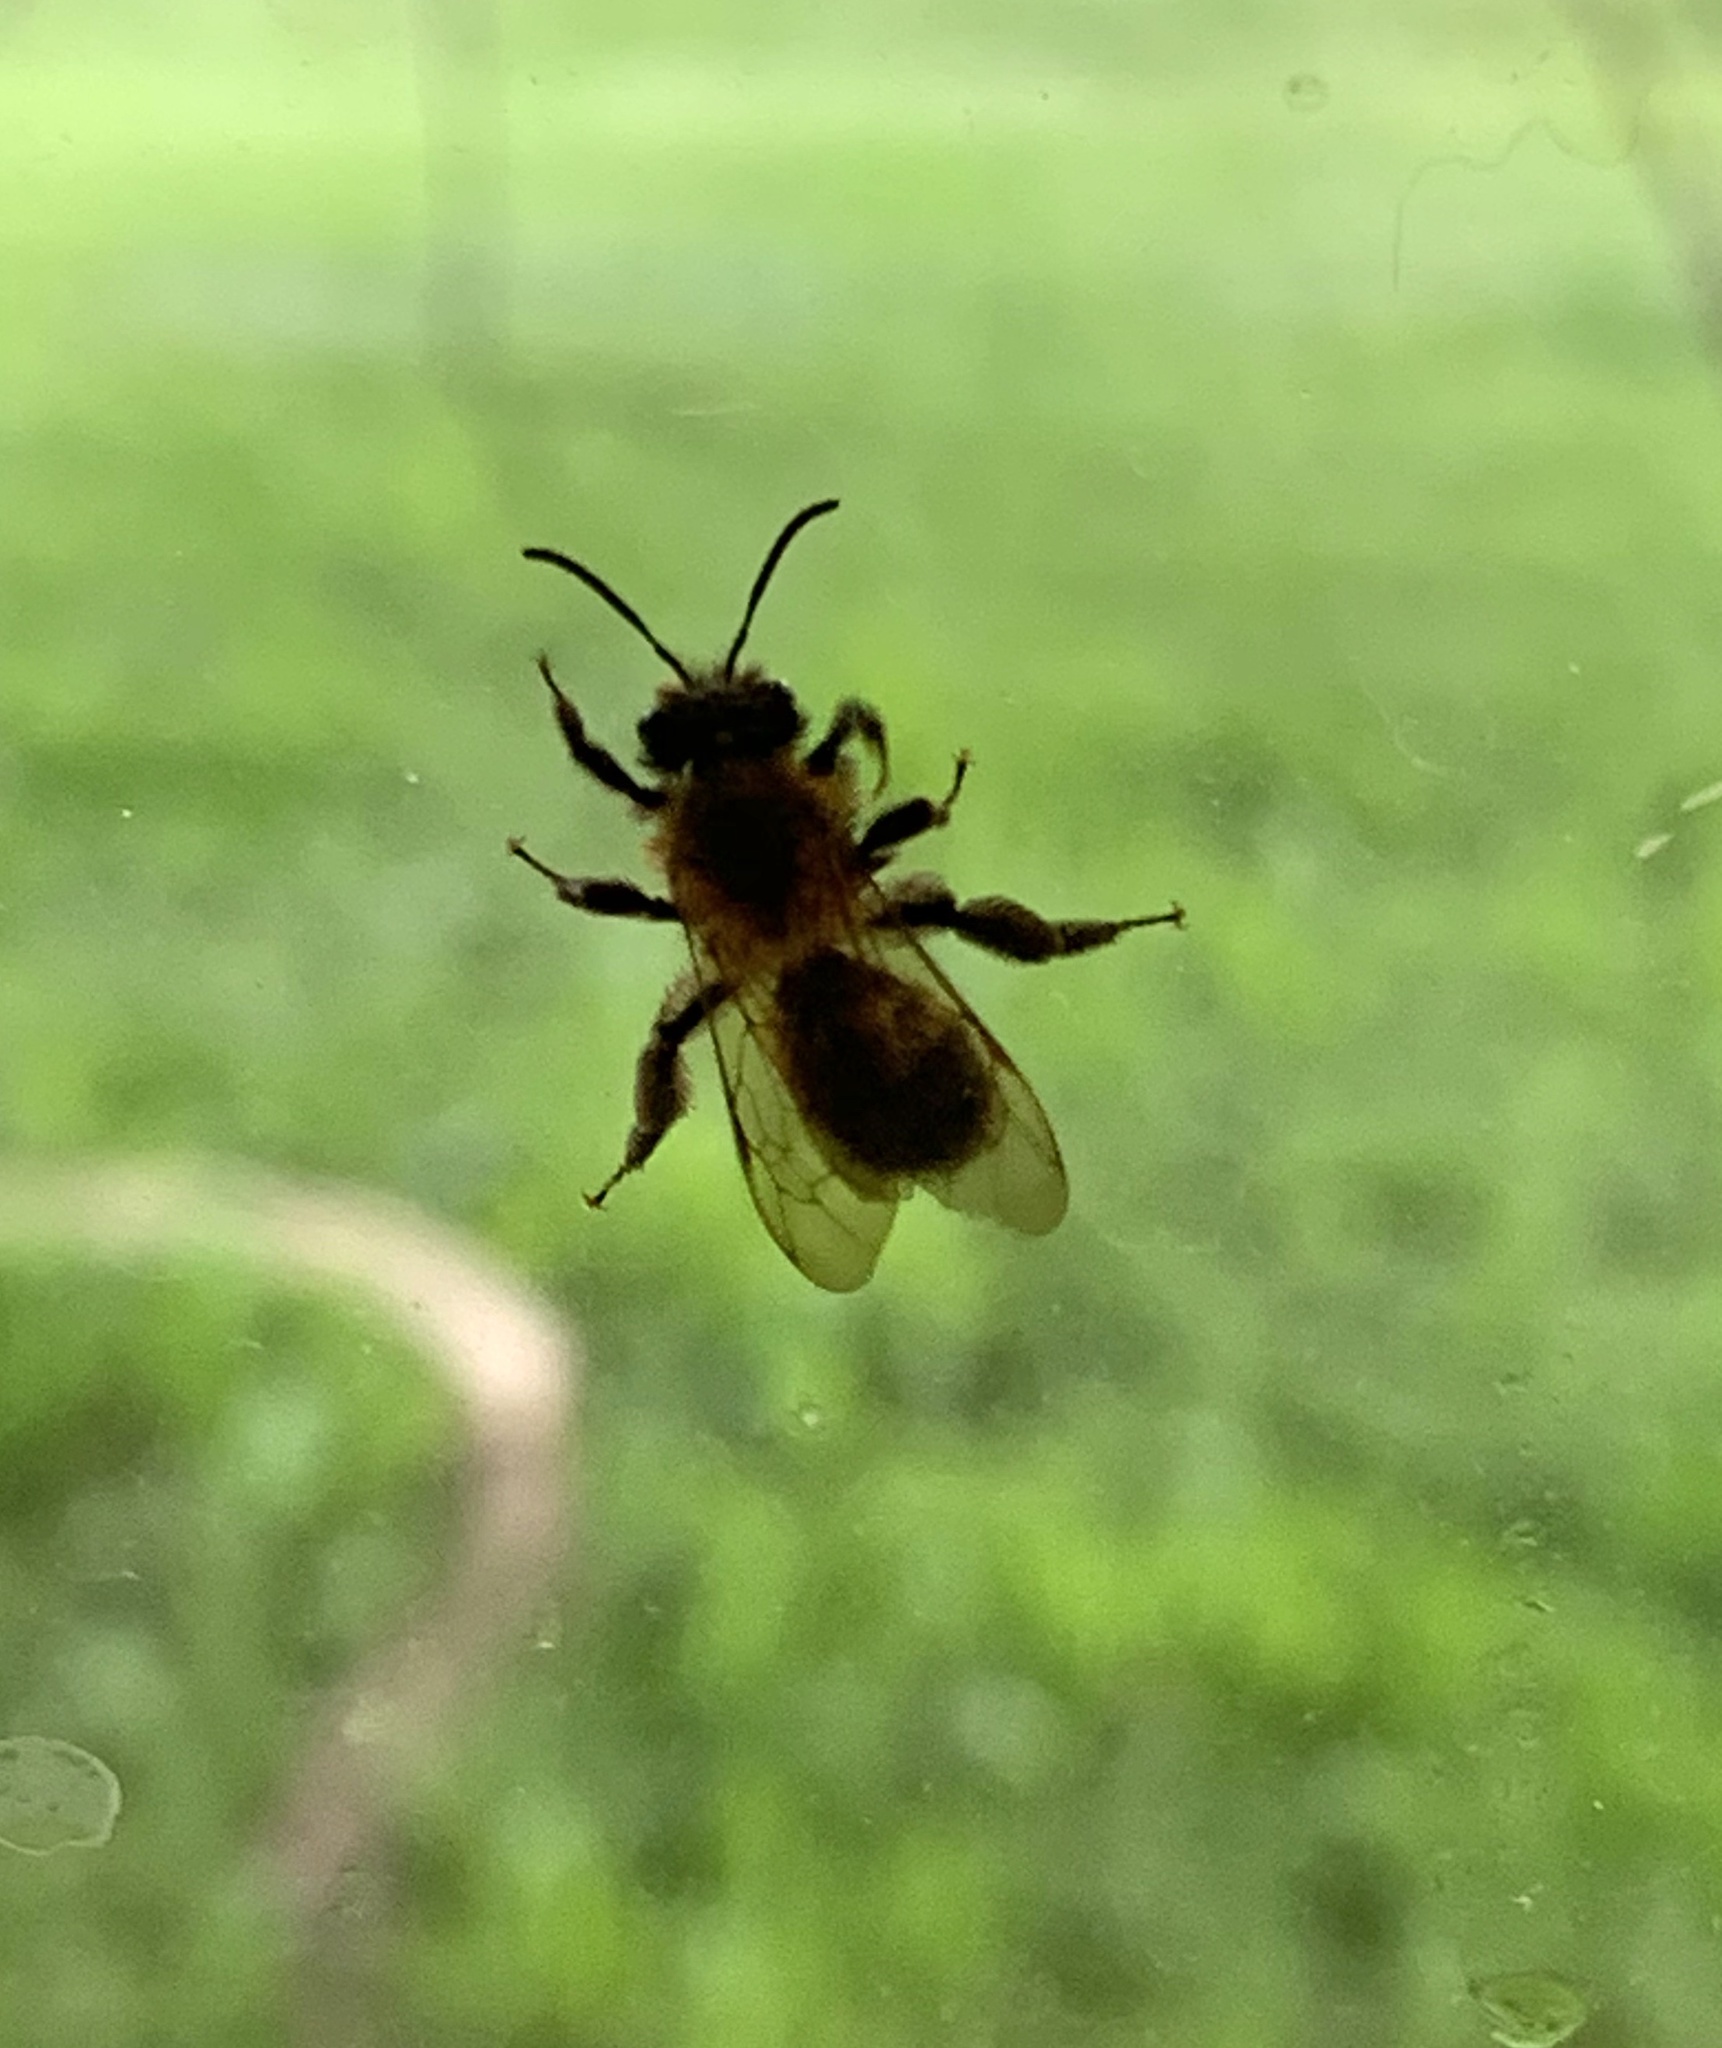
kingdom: Animalia
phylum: Arthropoda
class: Insecta
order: Hymenoptera
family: Andrenidae
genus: Andrena
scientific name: Andrena milwaukeensis
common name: Milwaukee mining bee
